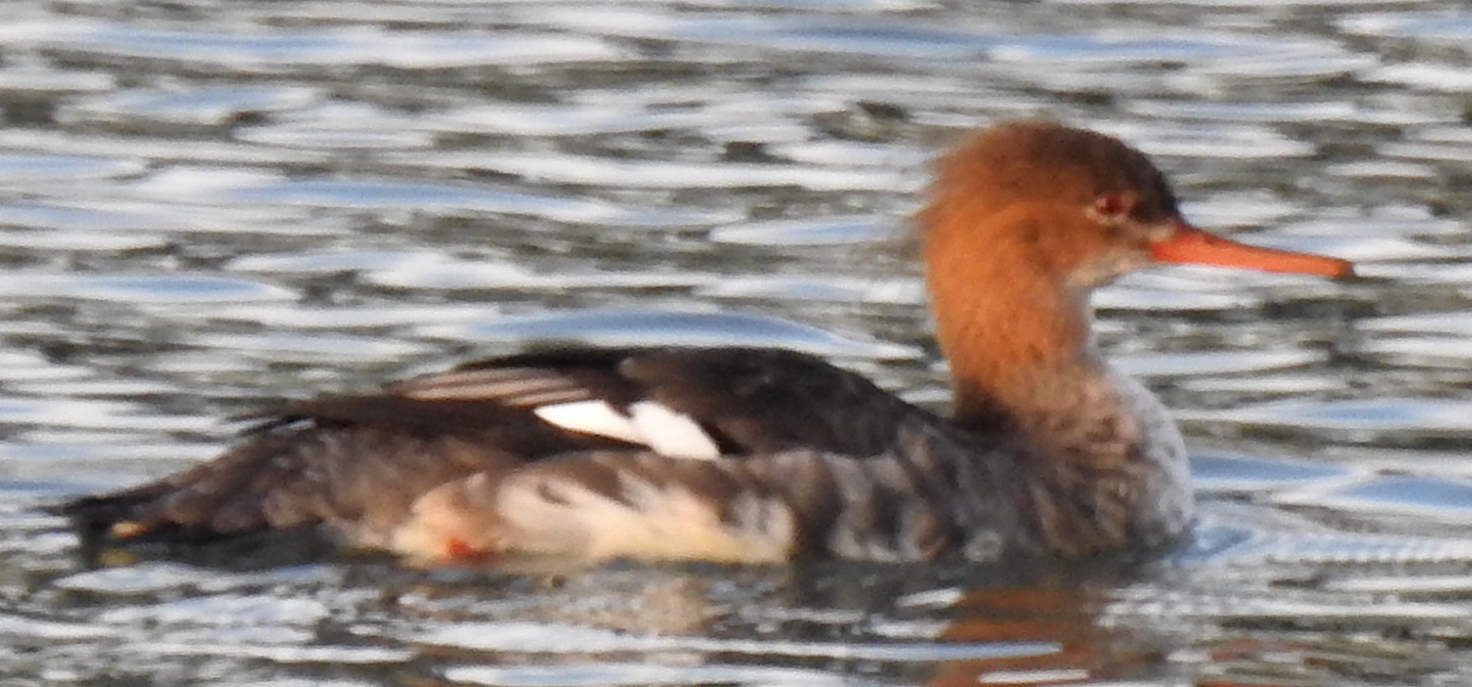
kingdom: Animalia
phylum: Chordata
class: Aves
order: Anseriformes
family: Anatidae
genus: Mergus
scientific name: Mergus serrator
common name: Red-breasted merganser
